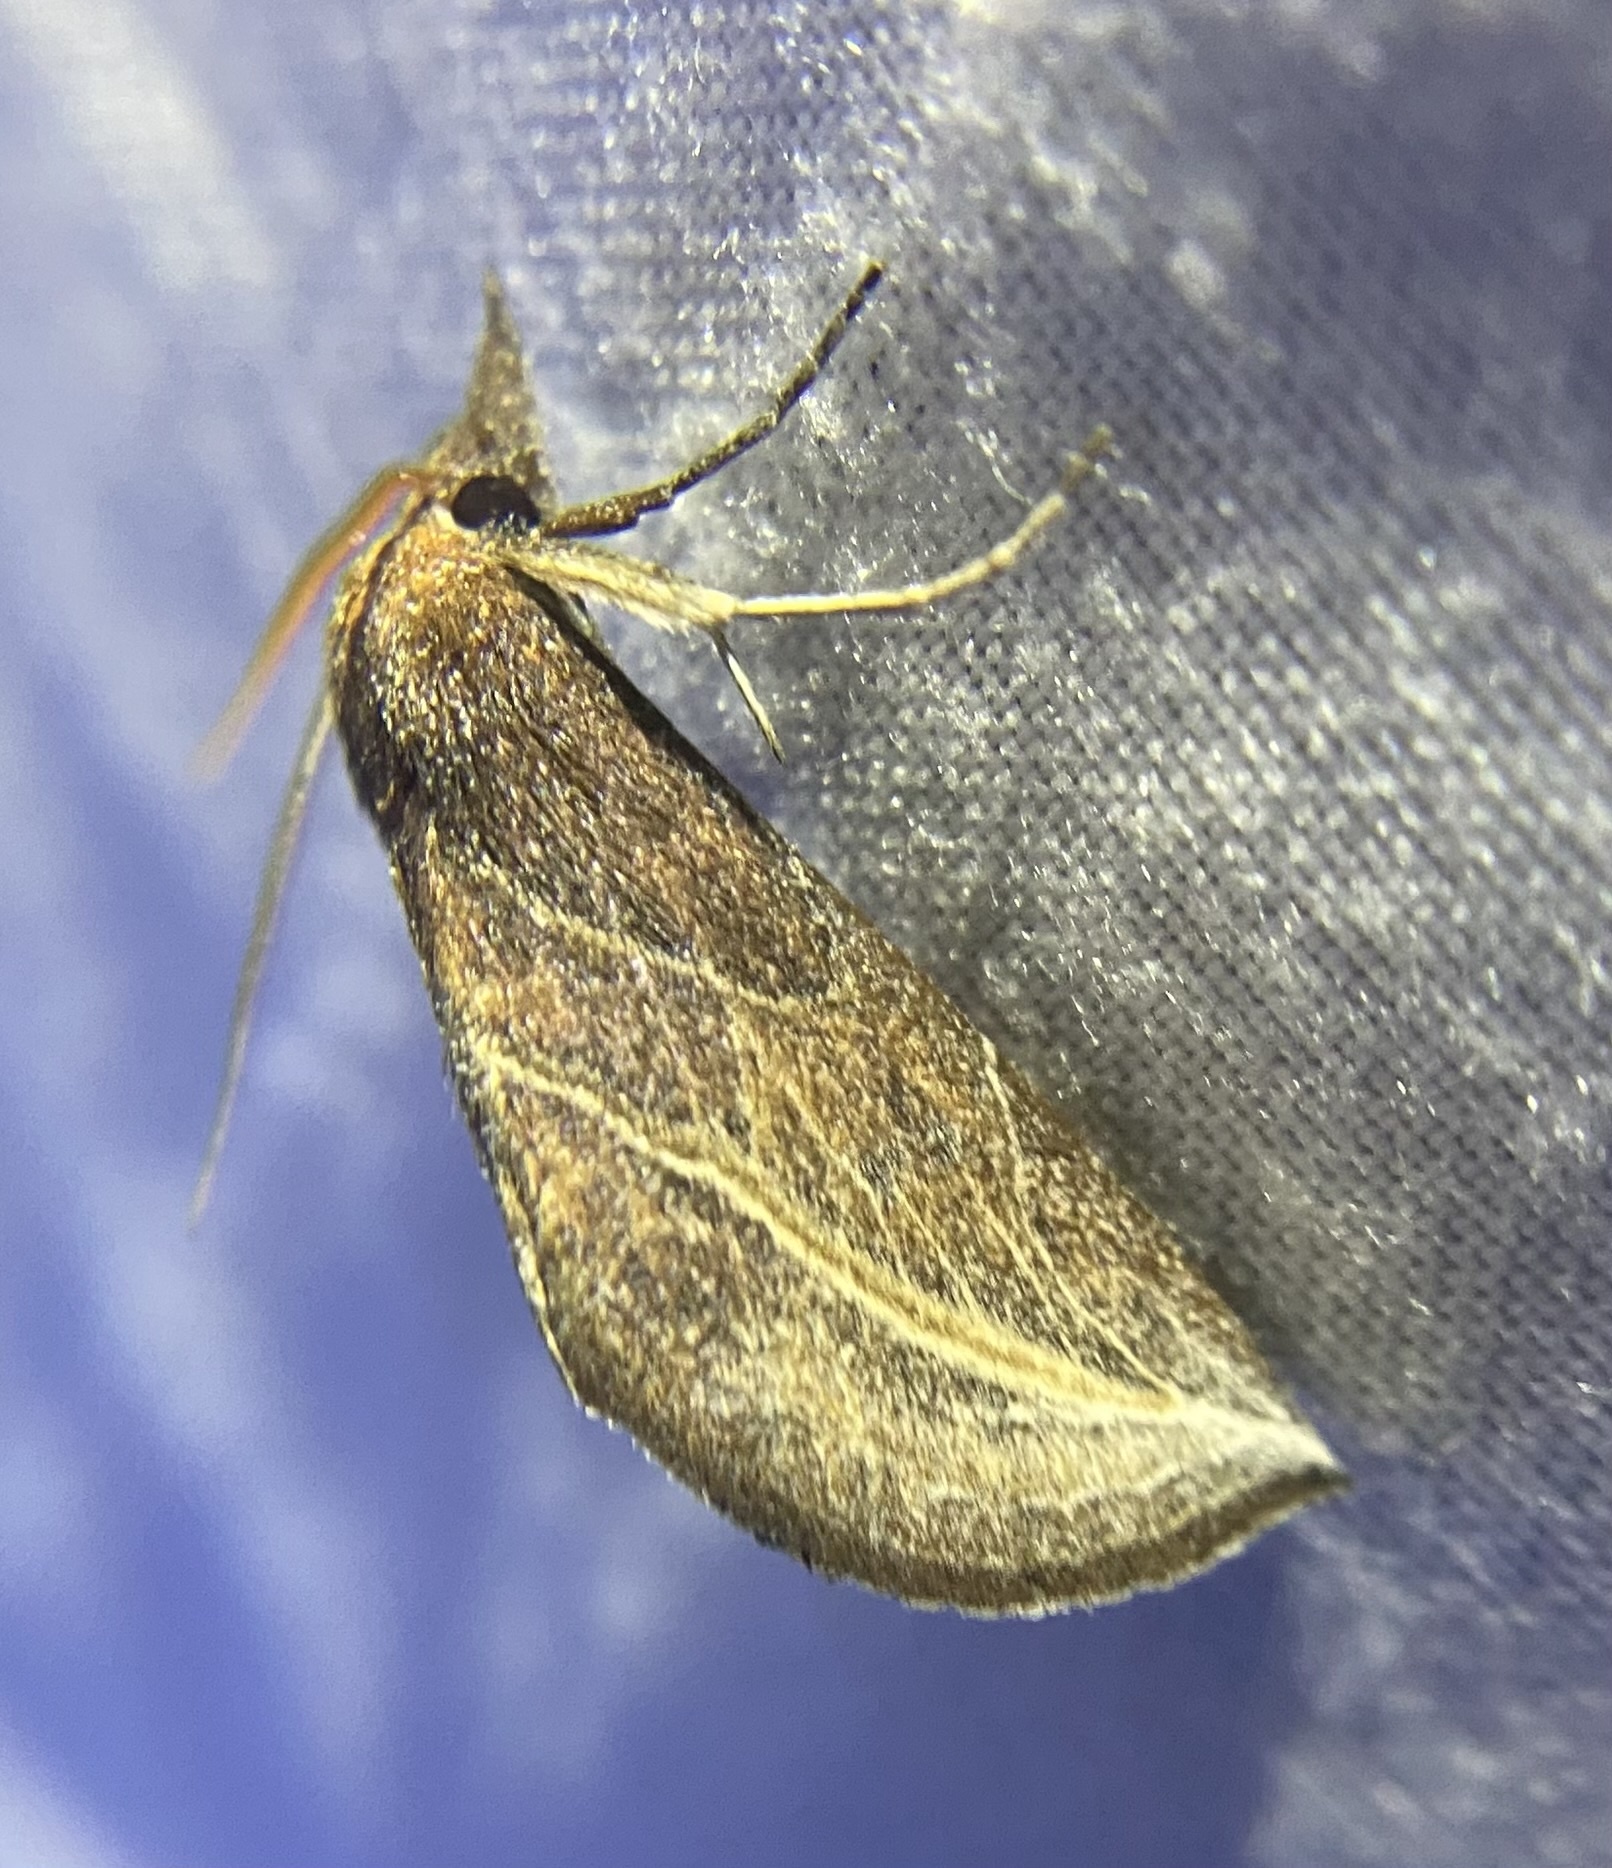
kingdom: Animalia
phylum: Arthropoda
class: Insecta
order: Lepidoptera
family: Erebidae
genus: Phyprosopus
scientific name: Phyprosopus callitrichoides
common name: Curved-lined owlet
